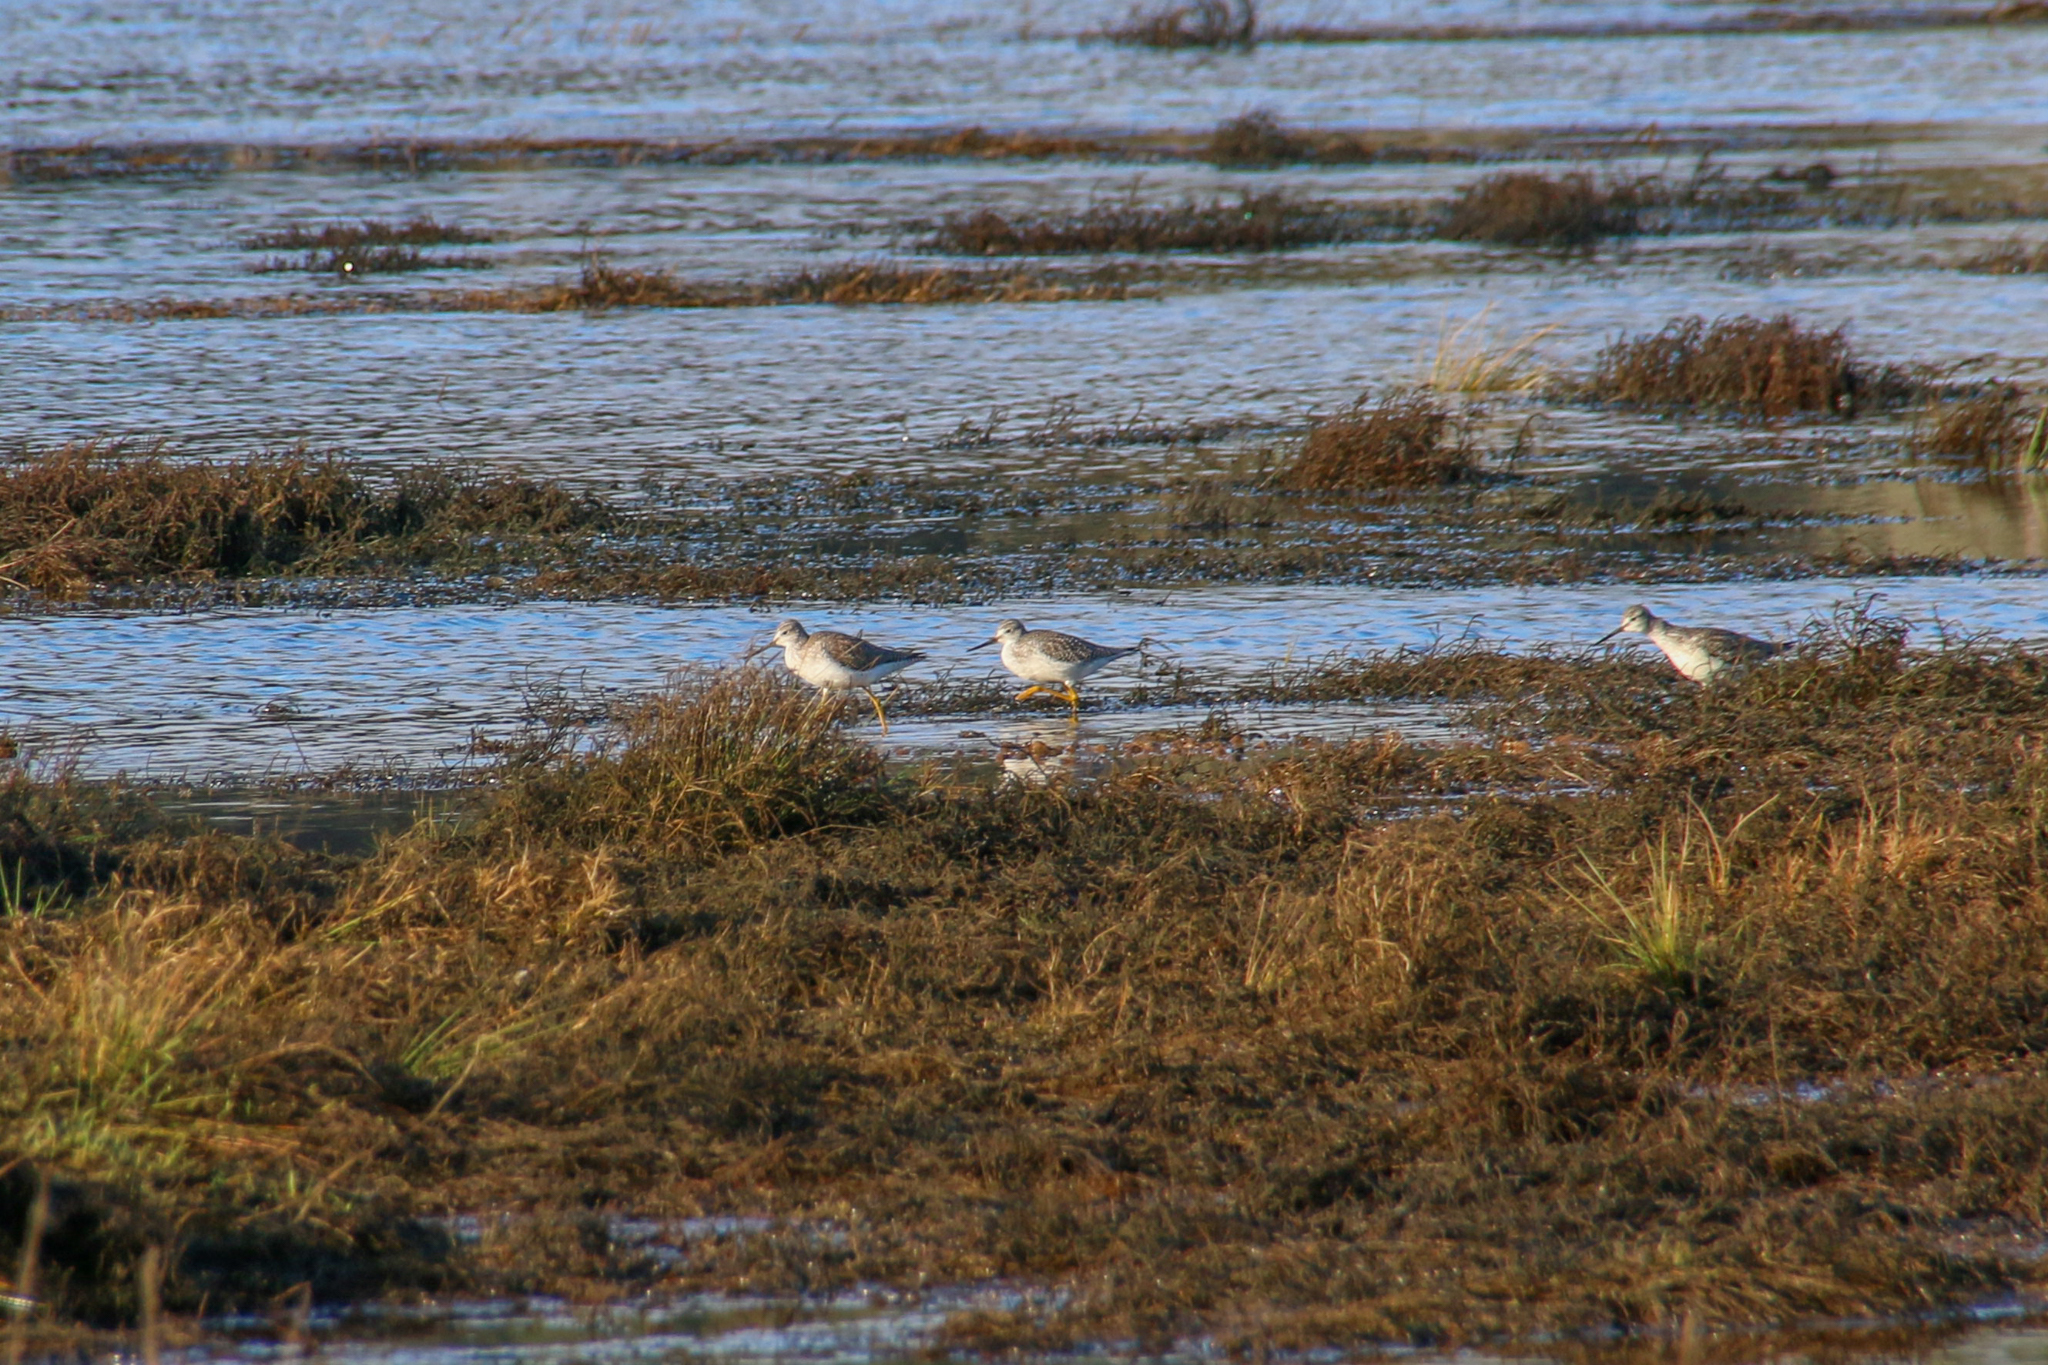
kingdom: Animalia
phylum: Chordata
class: Aves
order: Charadriiformes
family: Scolopacidae
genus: Tringa
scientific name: Tringa melanoleuca
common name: Greater yellowlegs
